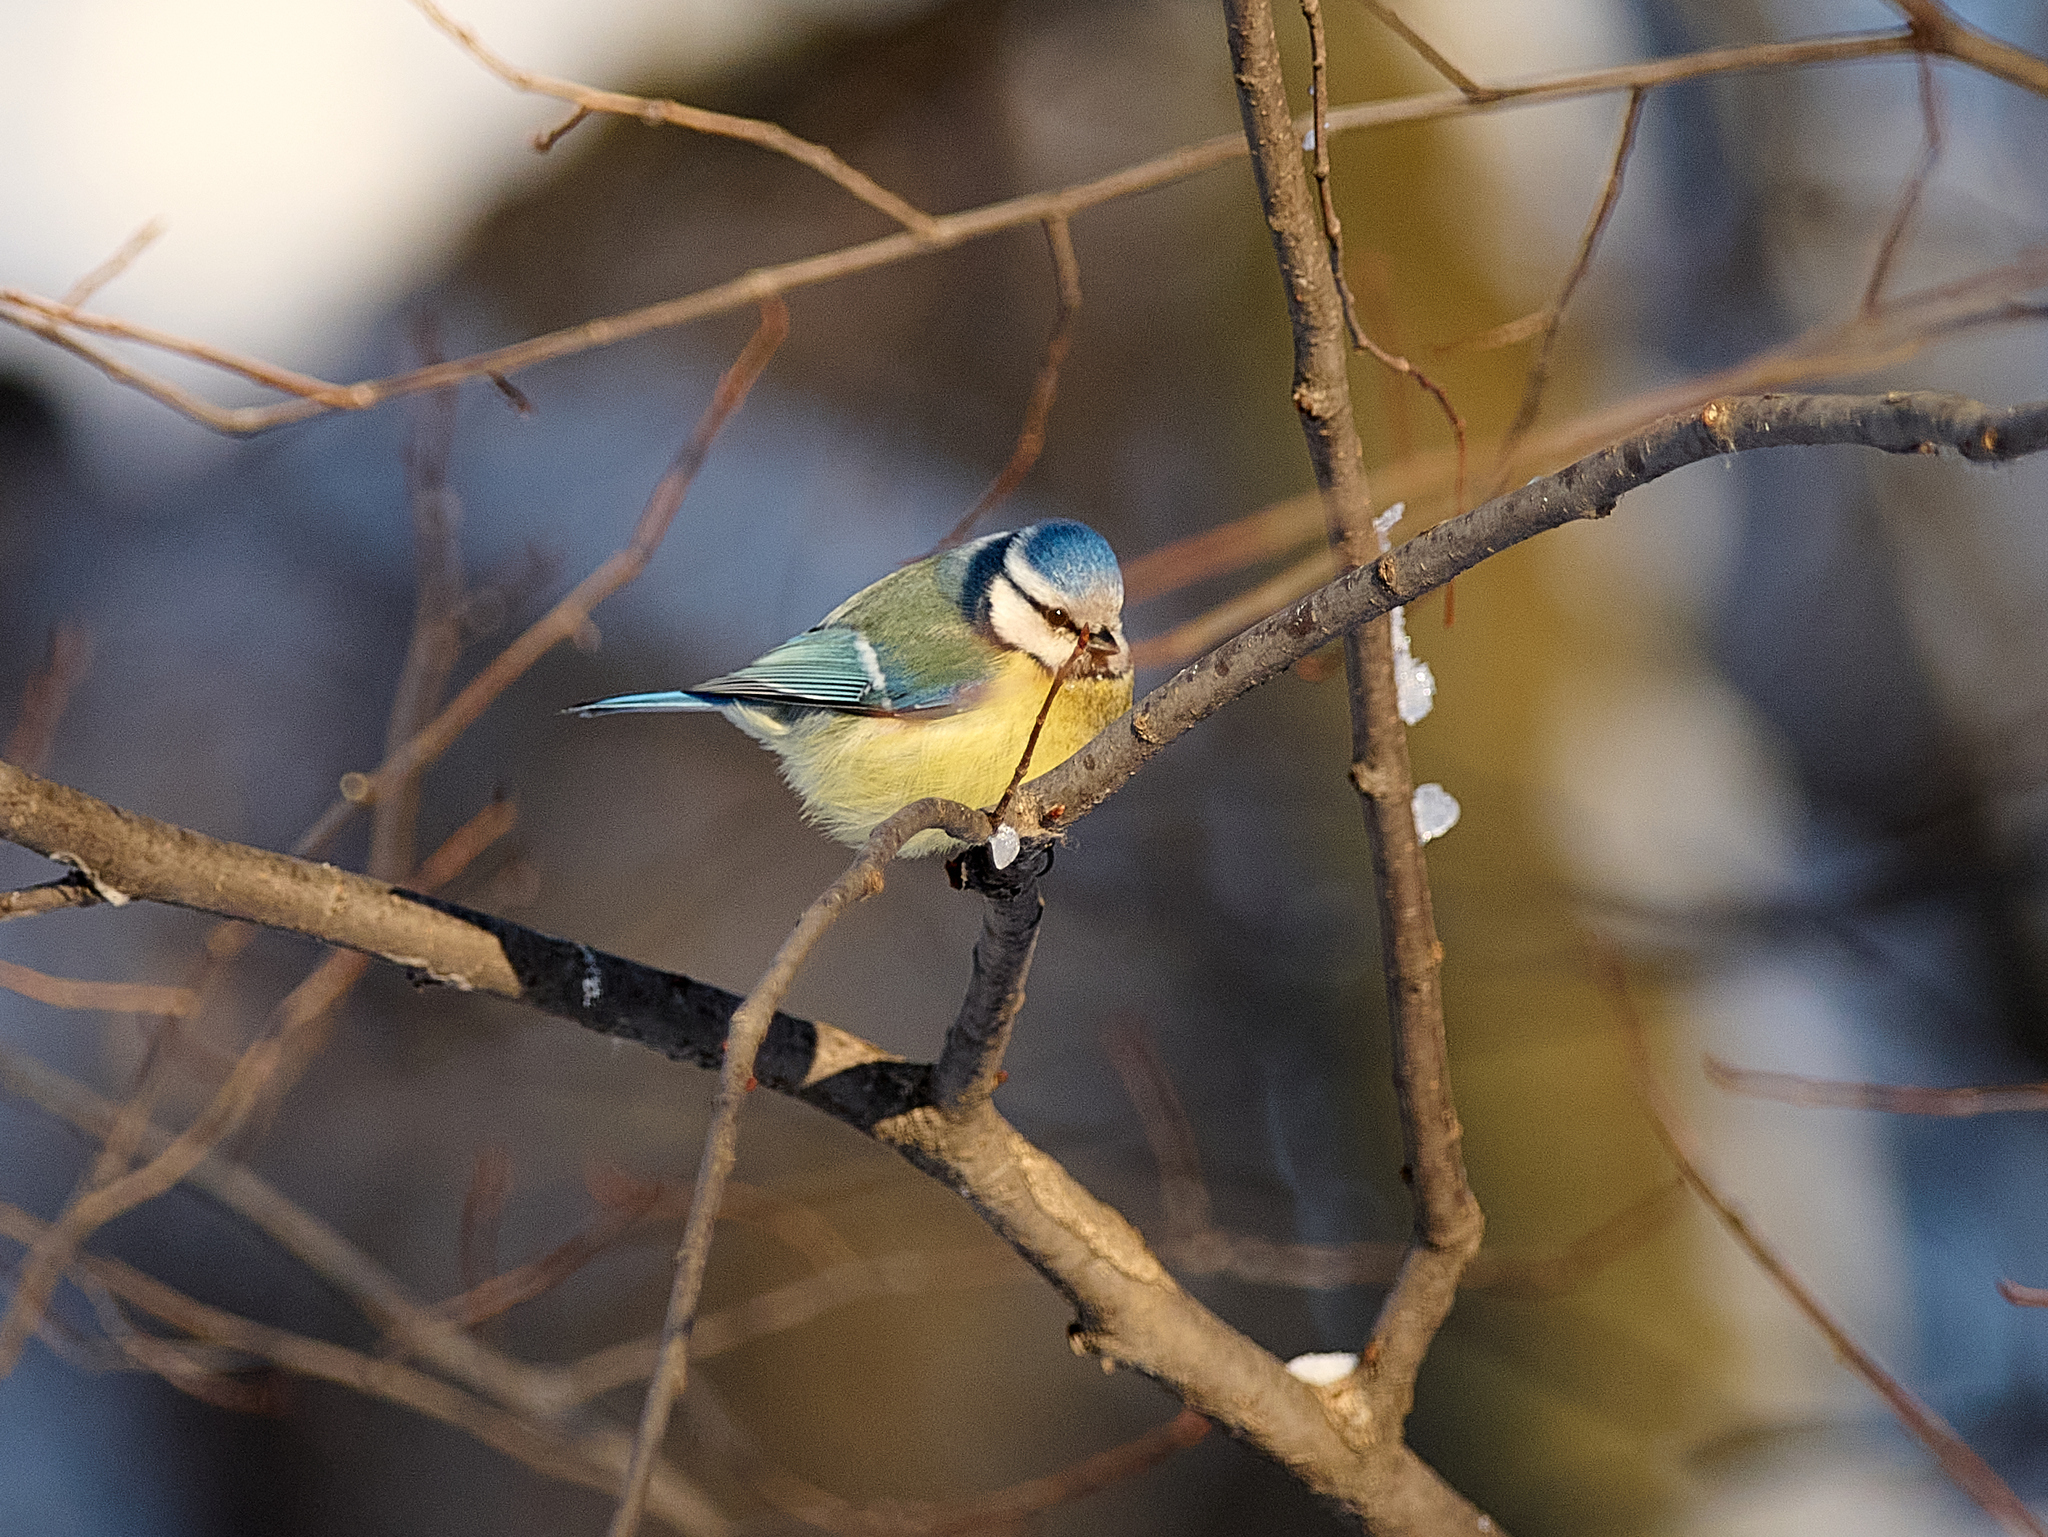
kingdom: Animalia
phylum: Chordata
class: Aves
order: Passeriformes
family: Paridae
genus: Cyanistes
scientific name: Cyanistes caeruleus
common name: Eurasian blue tit
